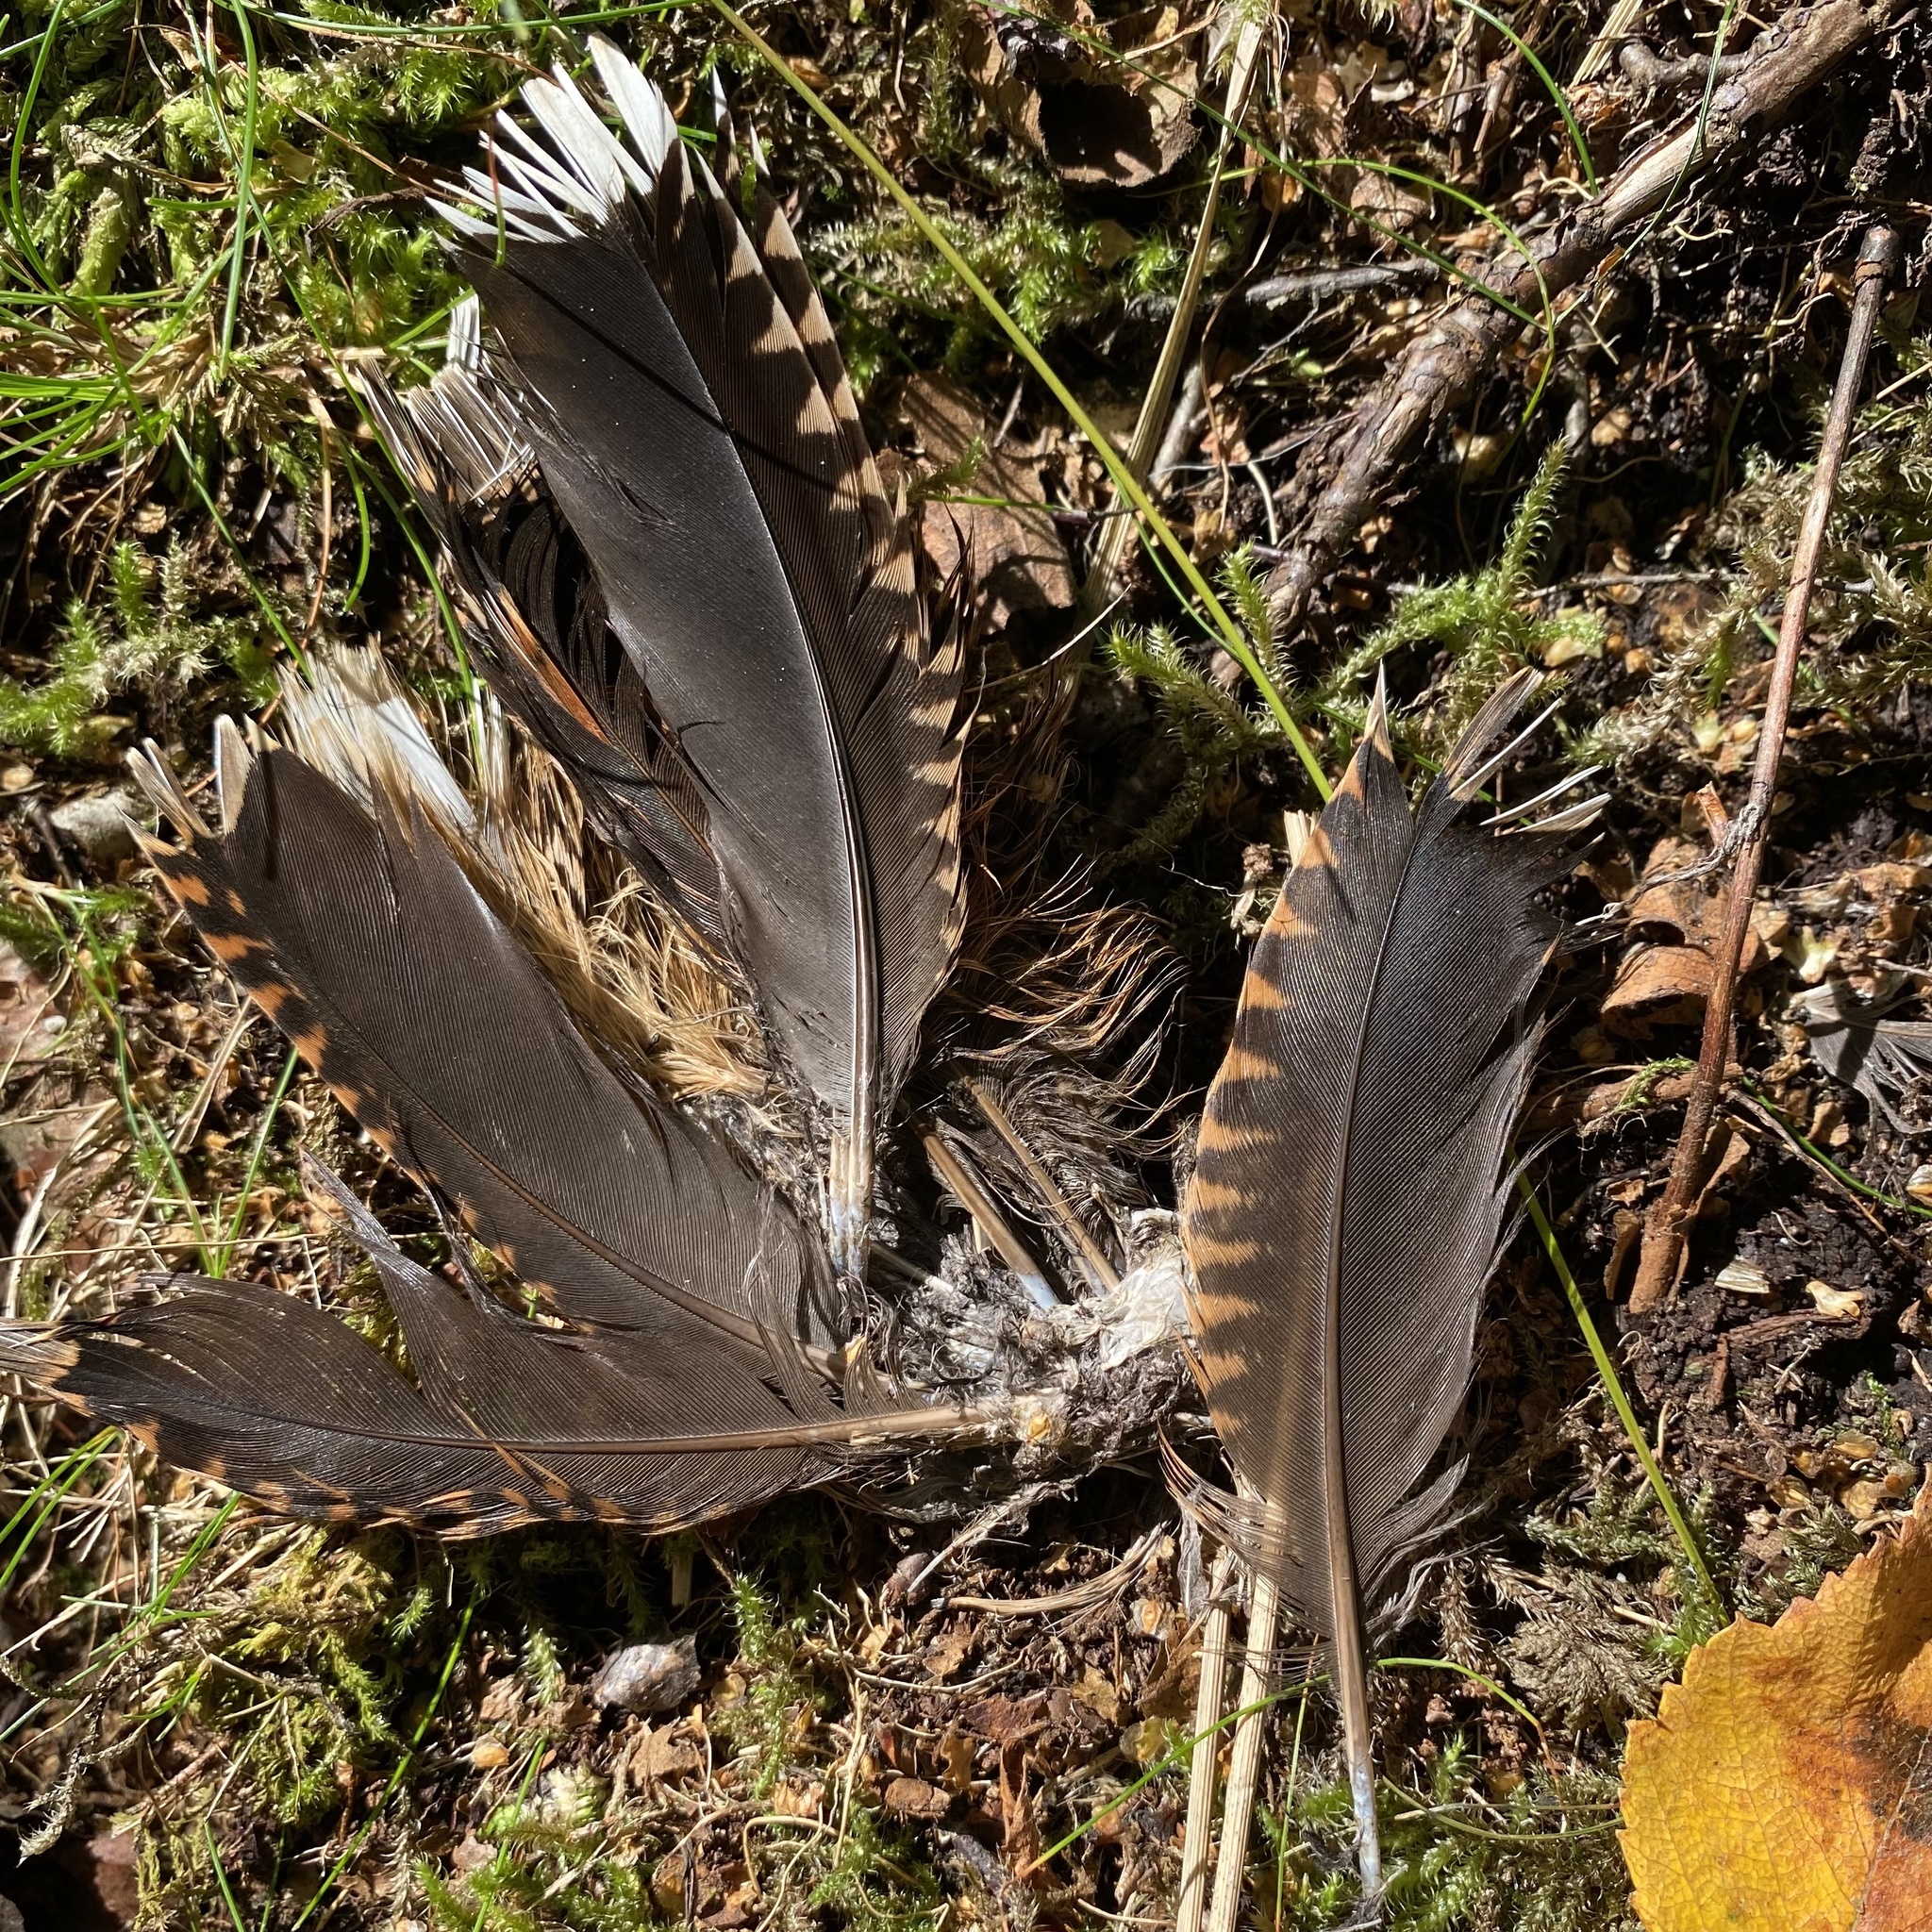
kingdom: Animalia
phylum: Chordata
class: Aves
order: Charadriiformes
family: Scolopacidae
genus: Scolopax
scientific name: Scolopax rusticola
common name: Eurasian woodcock
